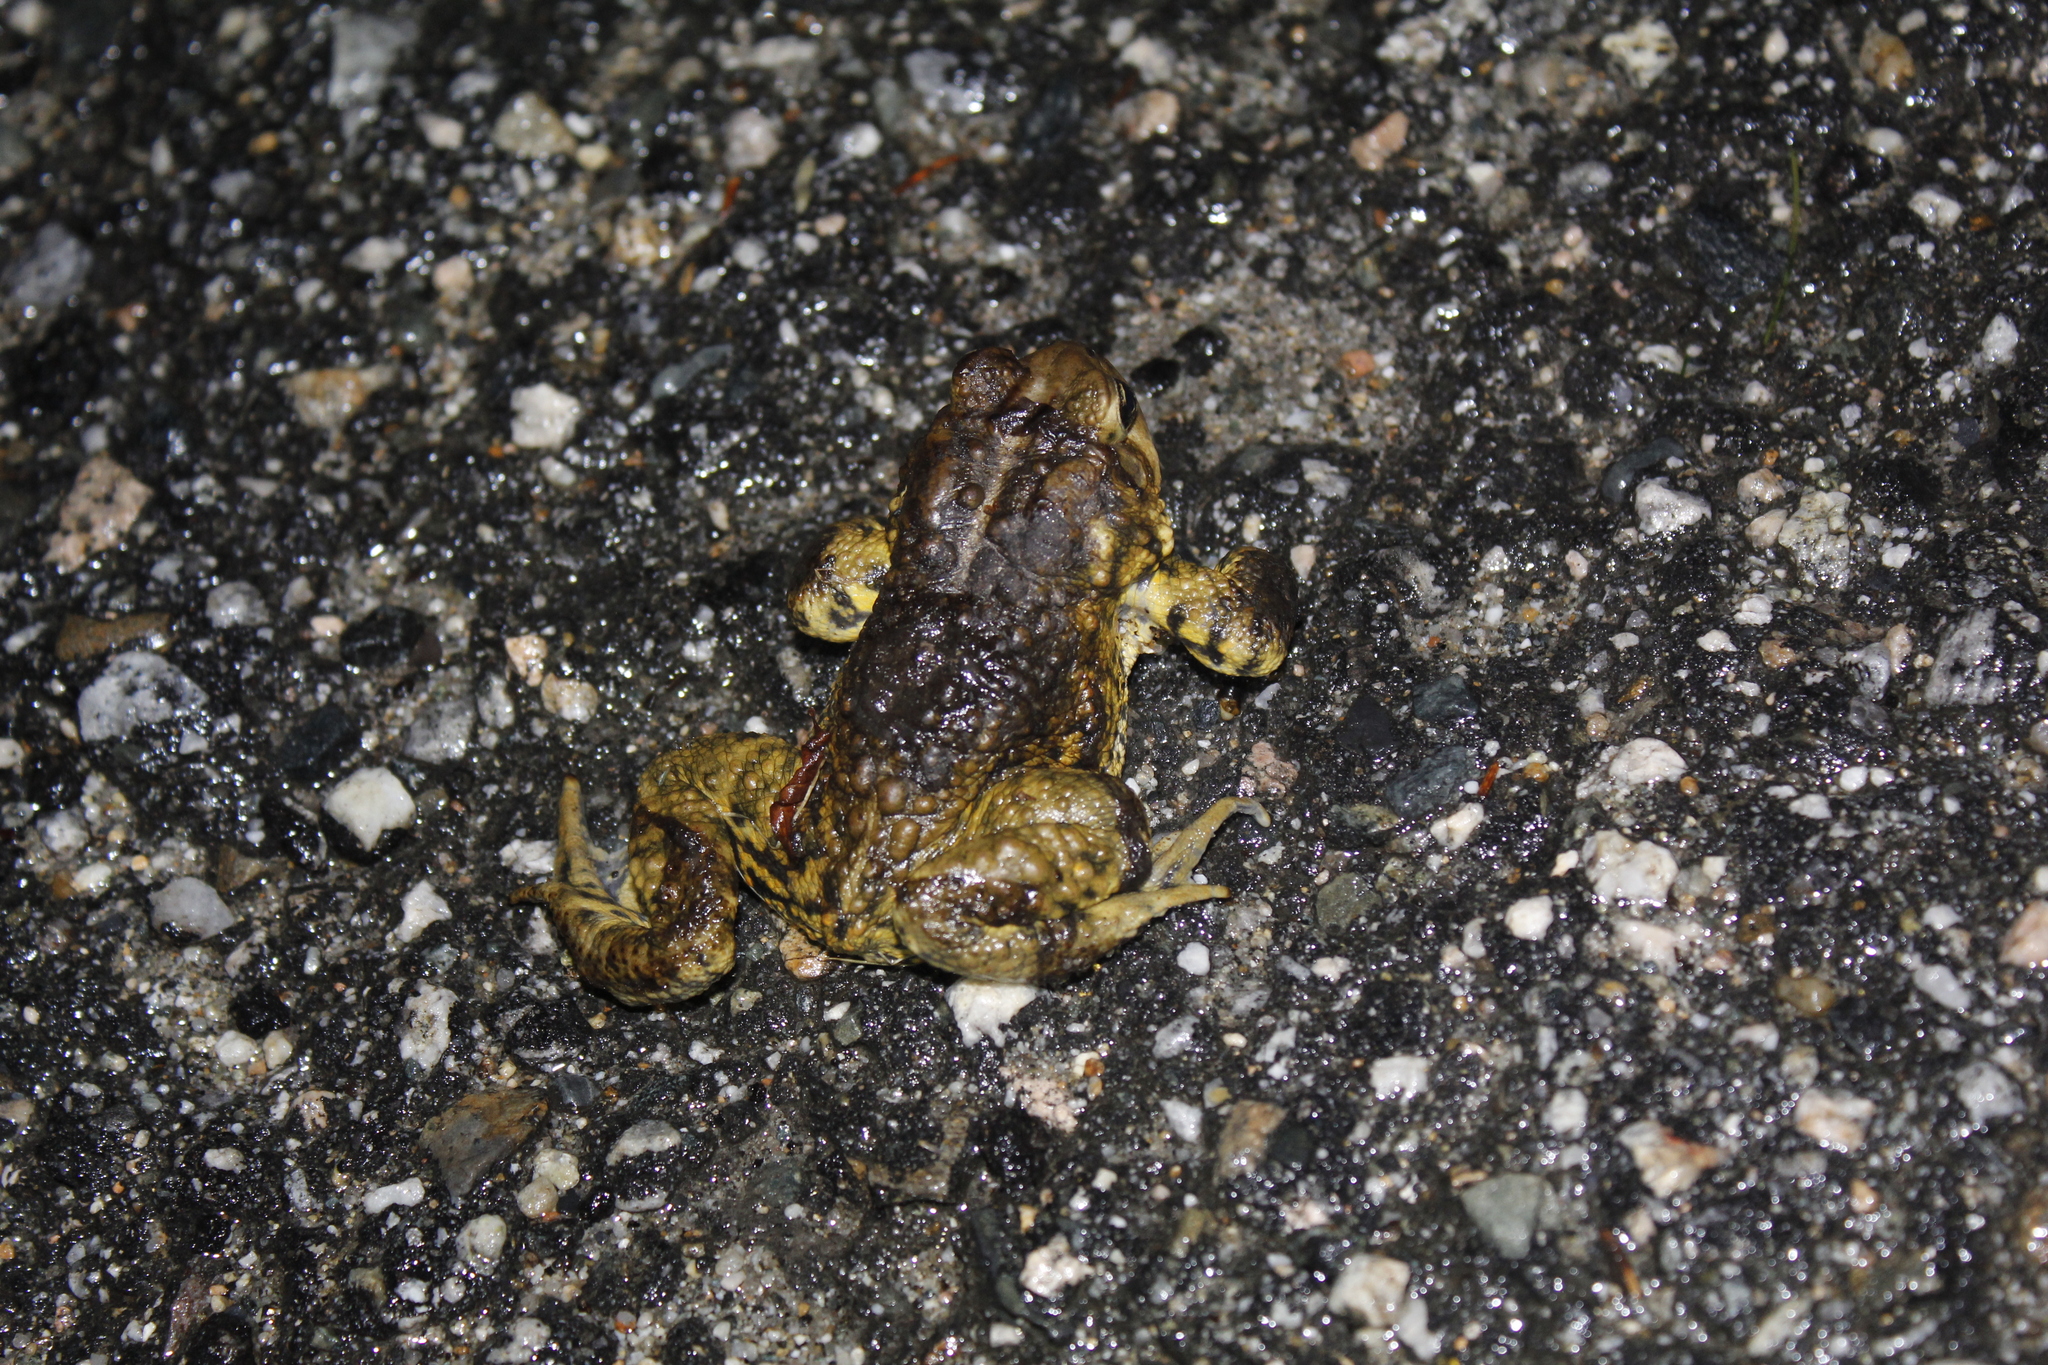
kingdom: Animalia
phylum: Chordata
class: Amphibia
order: Anura
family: Bufonidae
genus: Anaxyrus
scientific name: Anaxyrus americanus
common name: American toad
